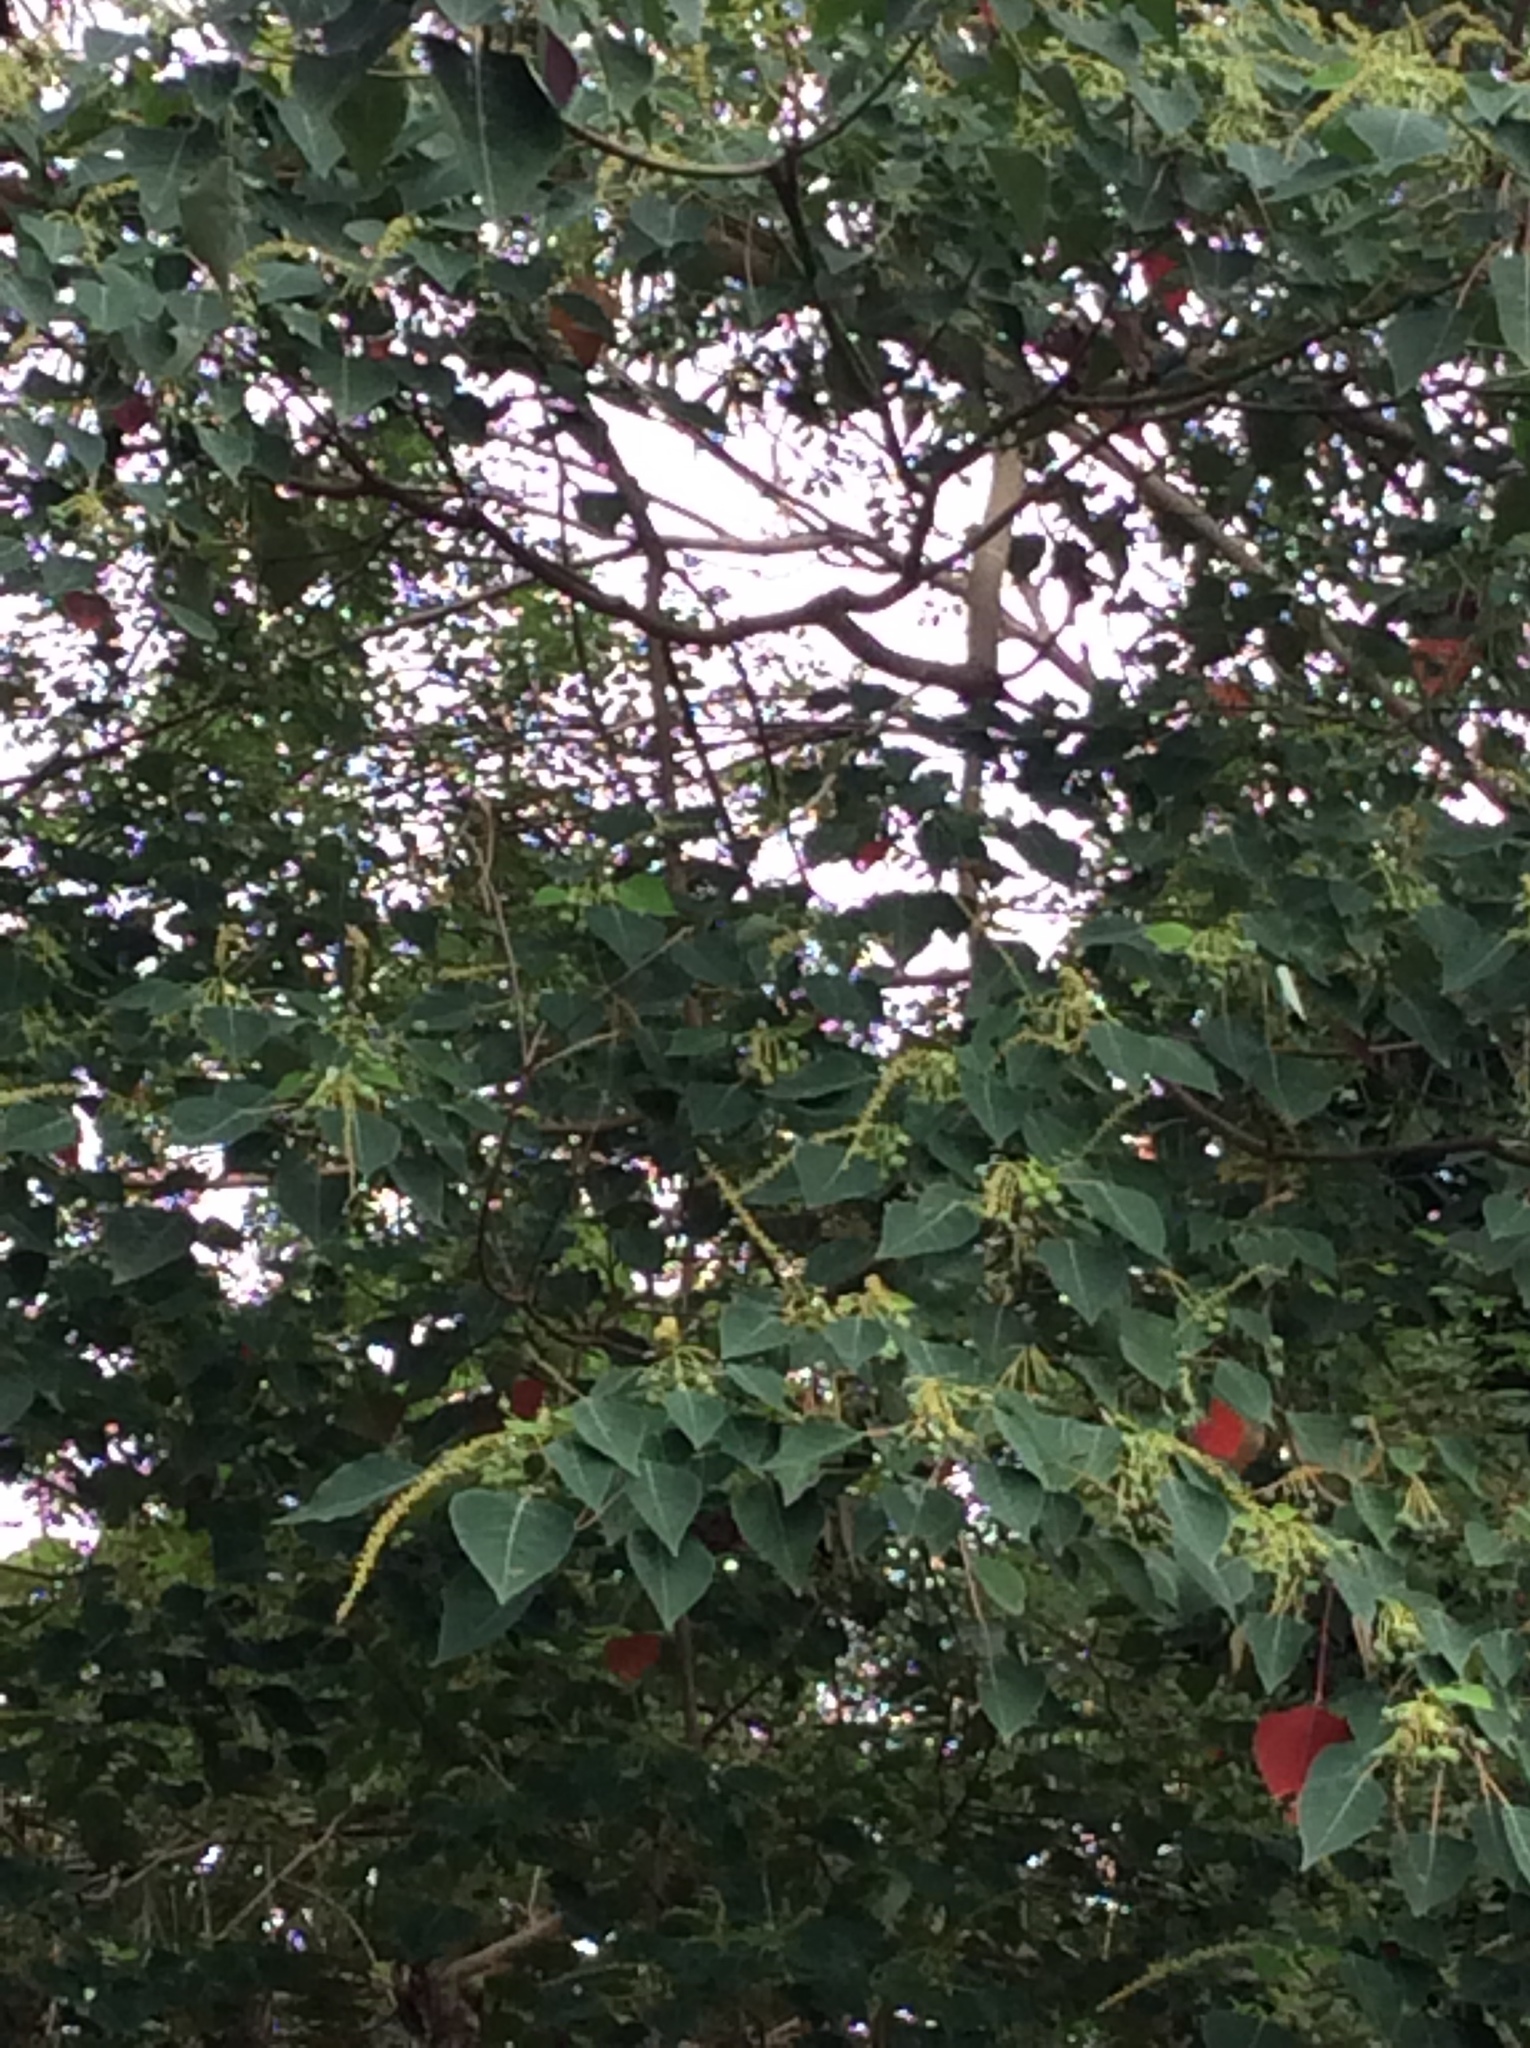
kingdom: Plantae
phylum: Tracheophyta
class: Magnoliopsida
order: Malpighiales
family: Euphorbiaceae
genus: Triadica
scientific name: Triadica sebifera
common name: Chinese tallow
